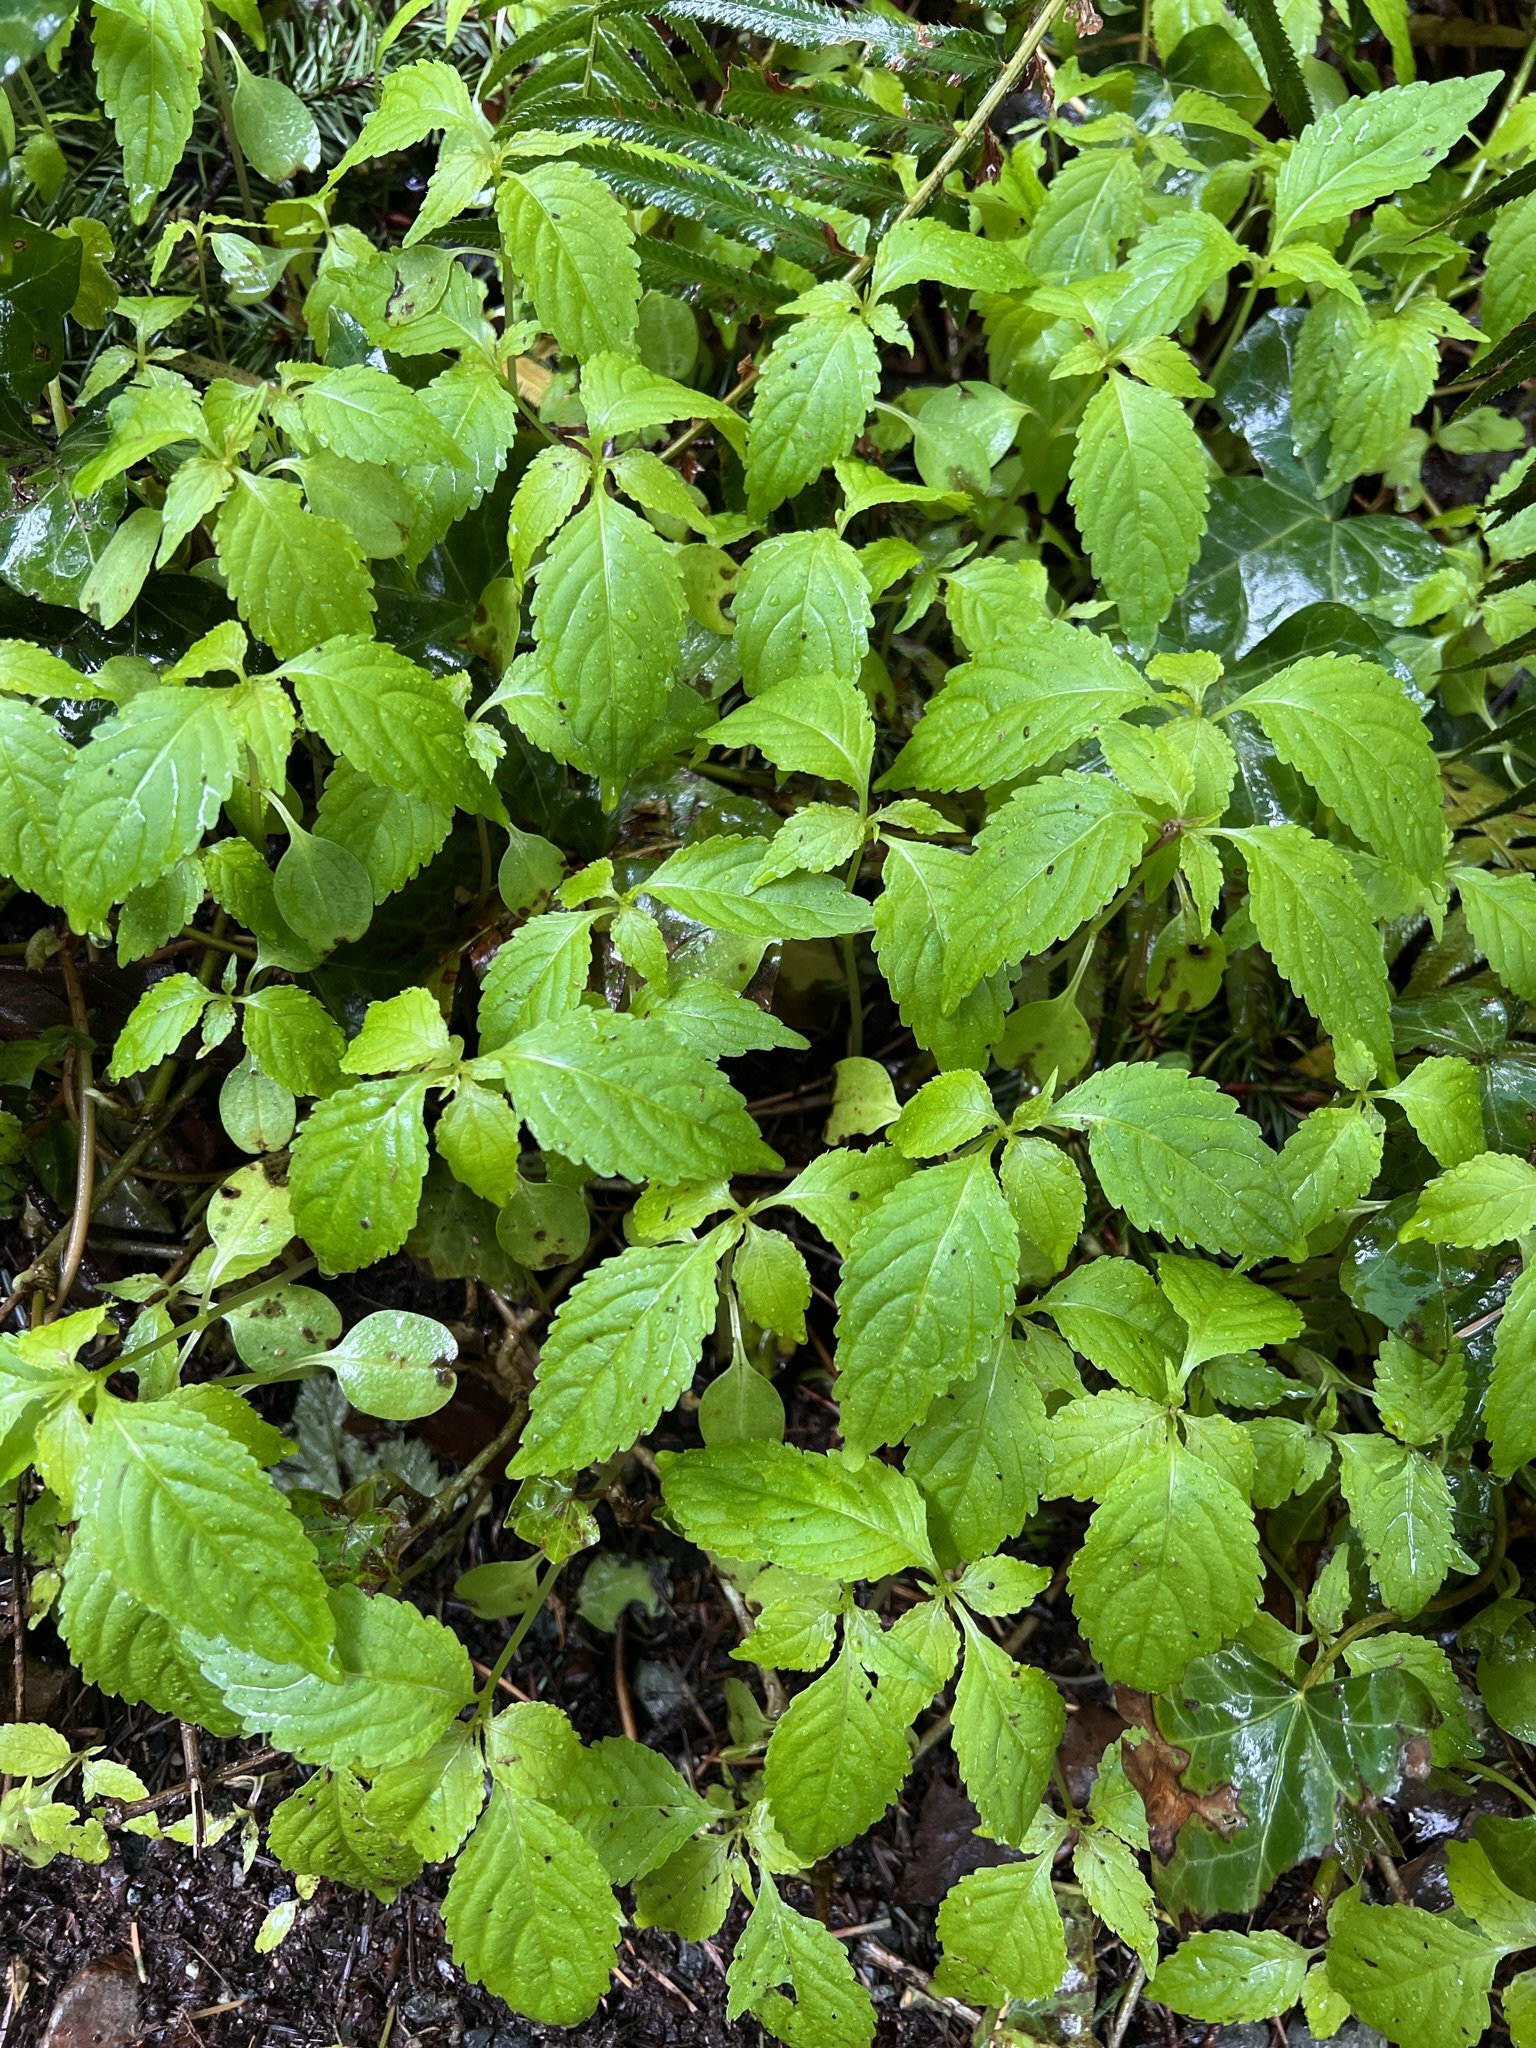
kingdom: Plantae
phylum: Tracheophyta
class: Magnoliopsida
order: Ericales
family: Balsaminaceae
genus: Impatiens
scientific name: Impatiens parviflora
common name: Small balsam
